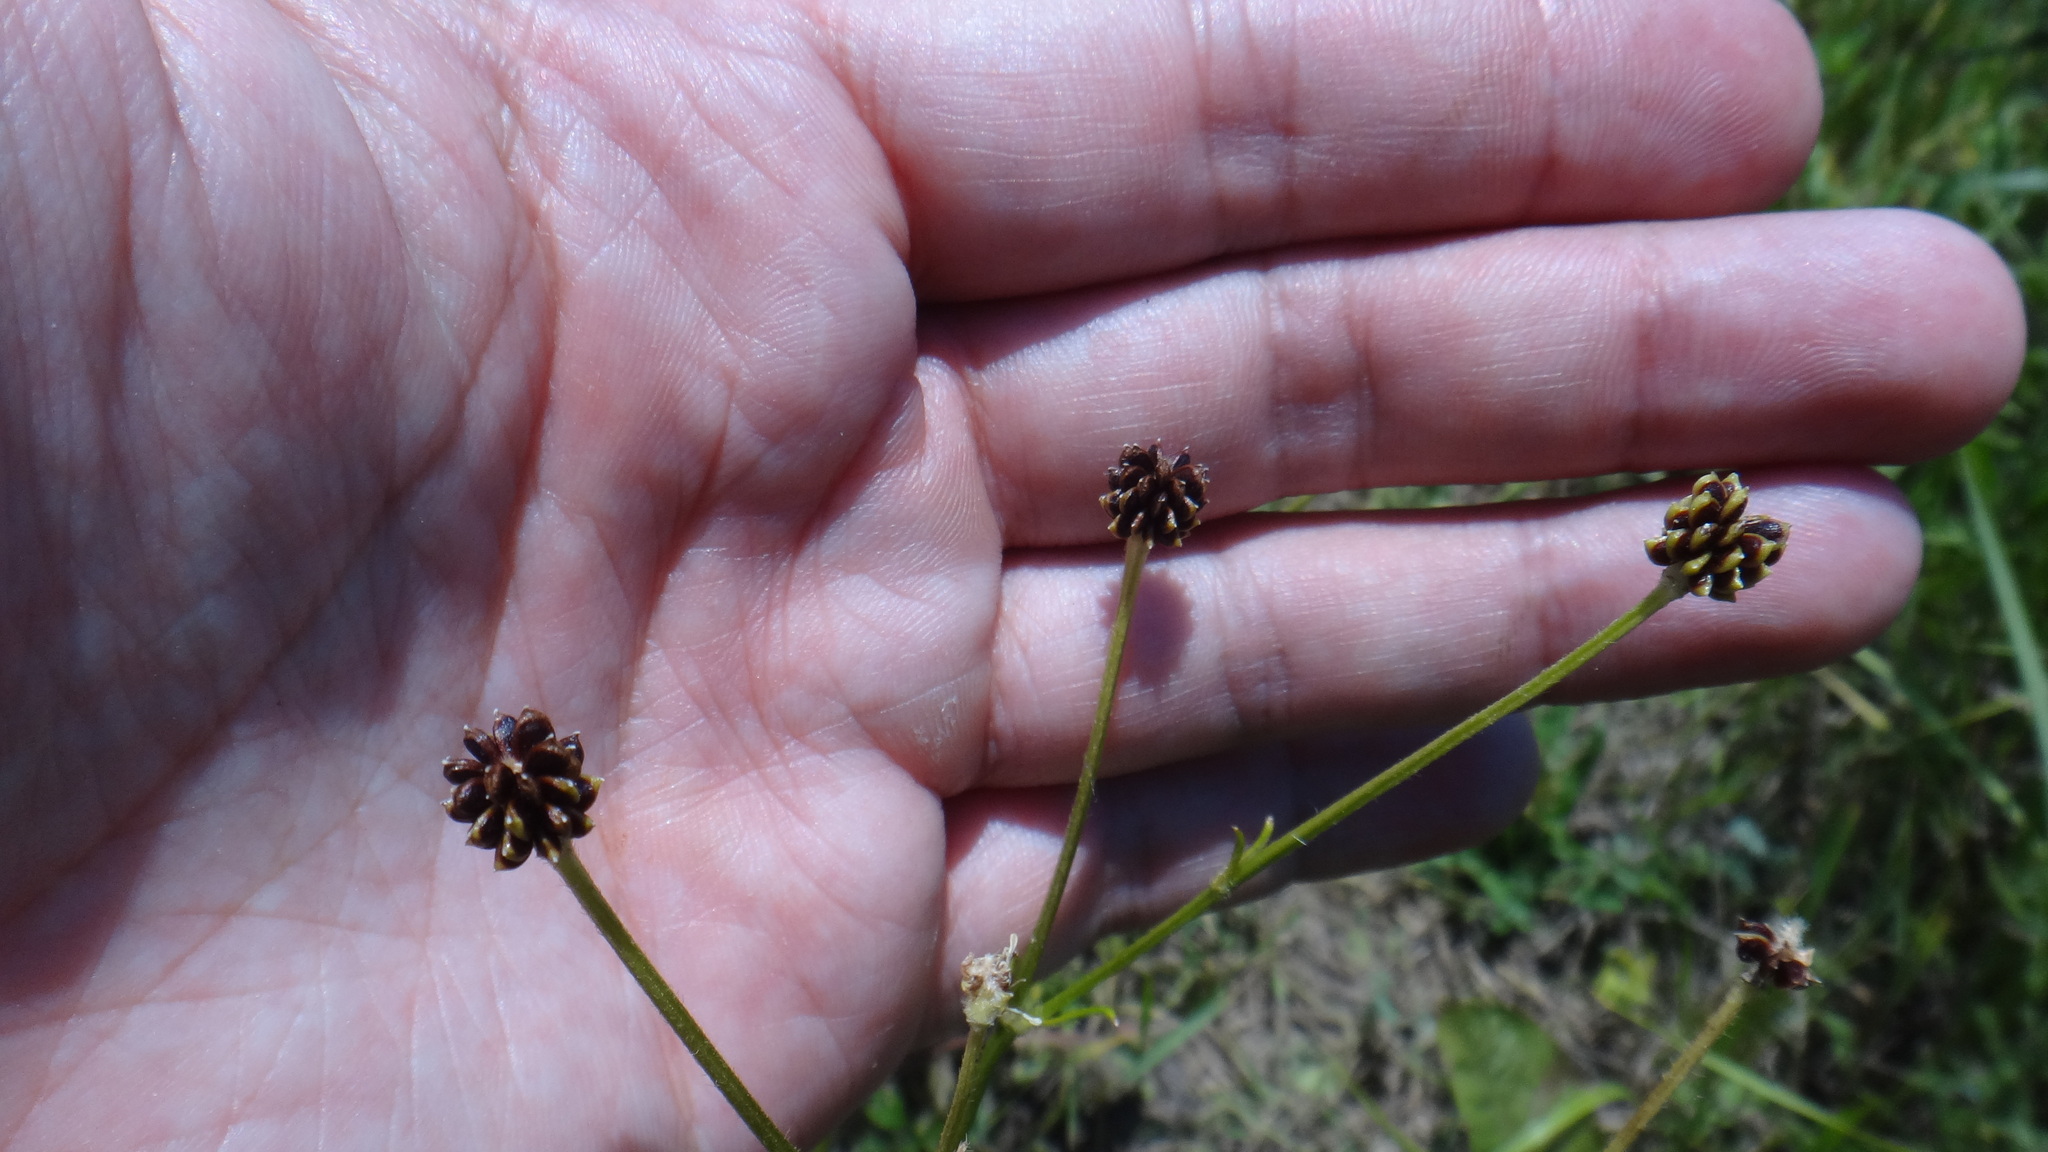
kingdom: Plantae
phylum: Tracheophyta
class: Magnoliopsida
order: Ranunculales
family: Ranunculaceae
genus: Ranunculus
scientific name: Ranunculus polyanthemos
